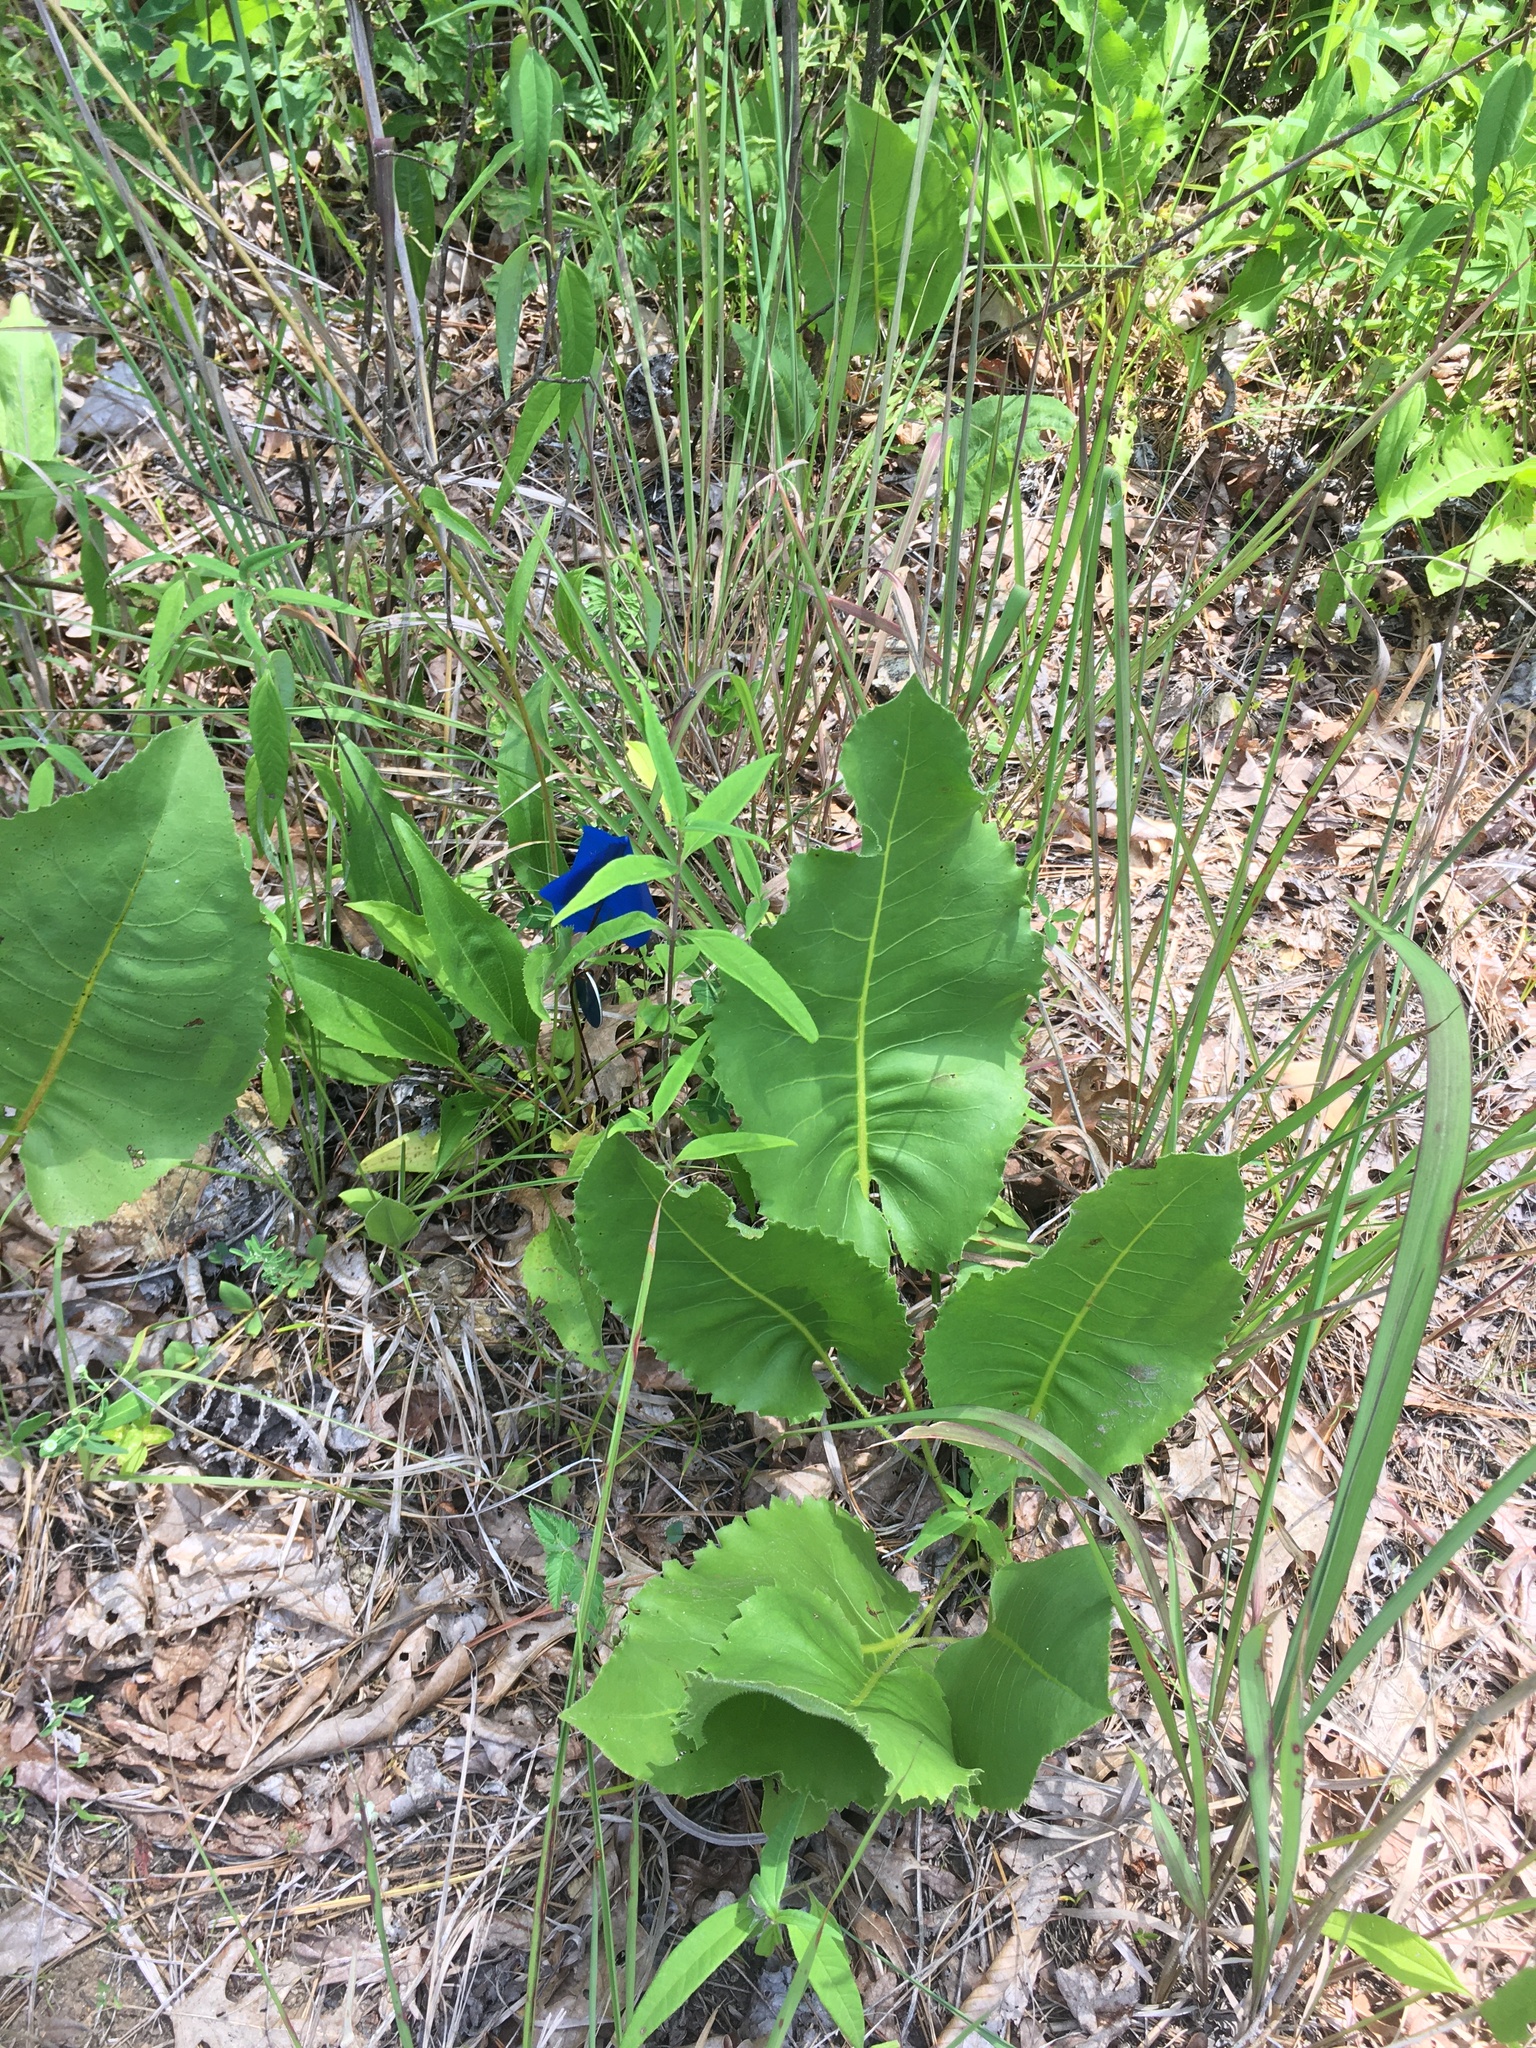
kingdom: Plantae
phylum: Tracheophyta
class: Magnoliopsida
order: Asterales
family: Asteraceae
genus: Silphium
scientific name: Silphium terebinthinaceum
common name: Basal-leaf rosinweed
